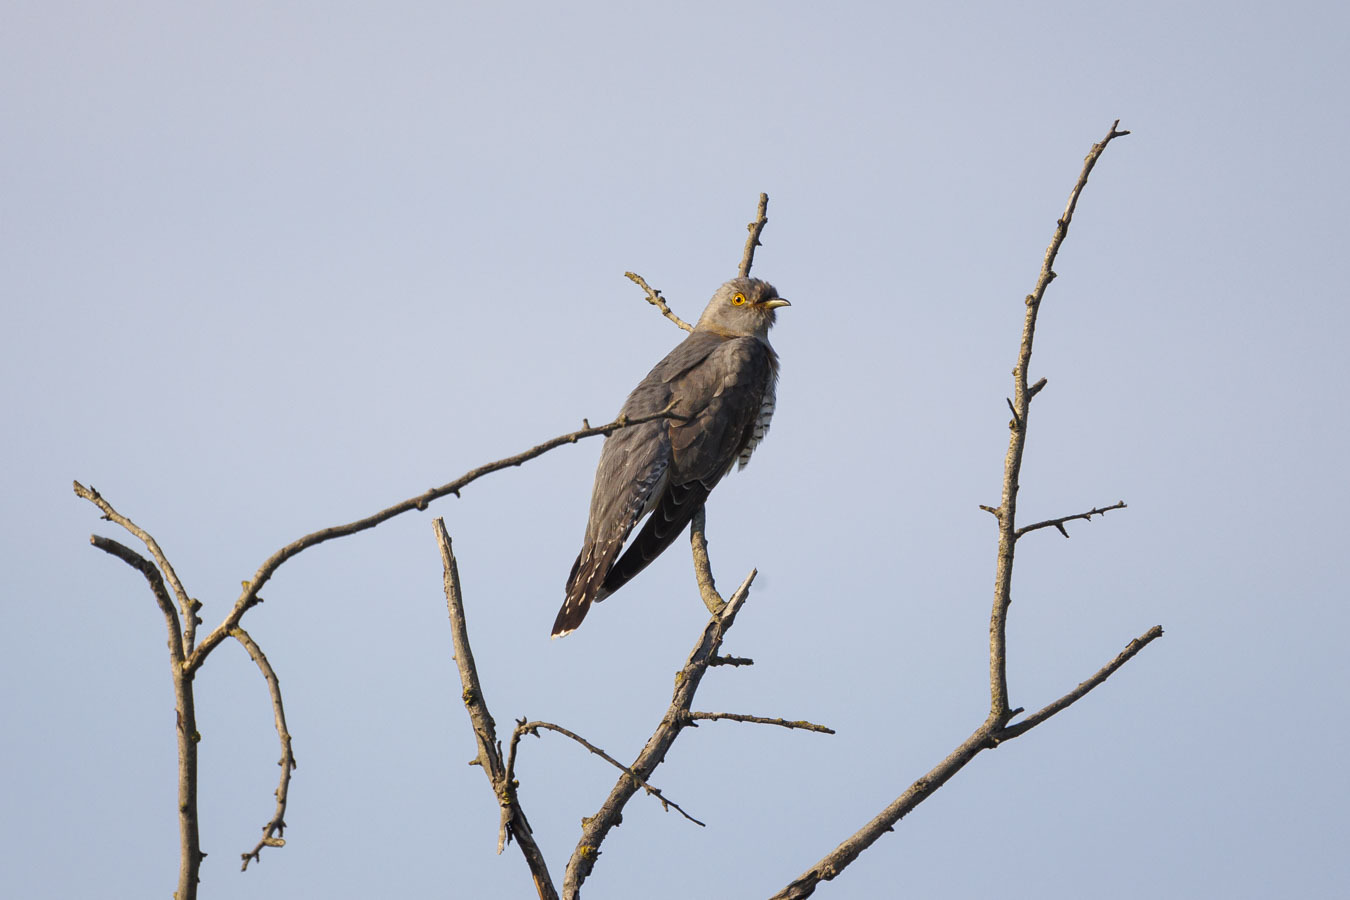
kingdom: Animalia
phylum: Chordata
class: Aves
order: Cuculiformes
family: Cuculidae
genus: Cuculus
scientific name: Cuculus canorus
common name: Common cuckoo
